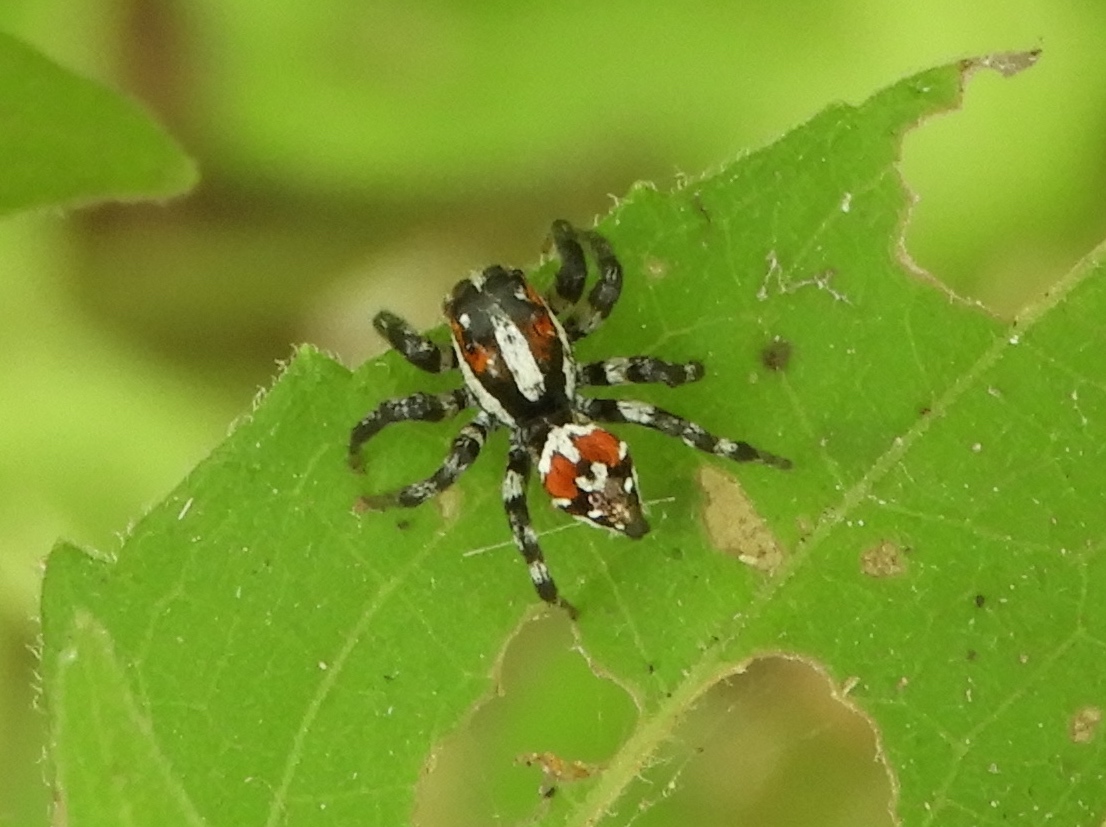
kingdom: Animalia
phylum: Arthropoda
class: Arachnida
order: Araneae
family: Salticidae
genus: Nycerella
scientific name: Nycerella delecta
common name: Jumping spiders
